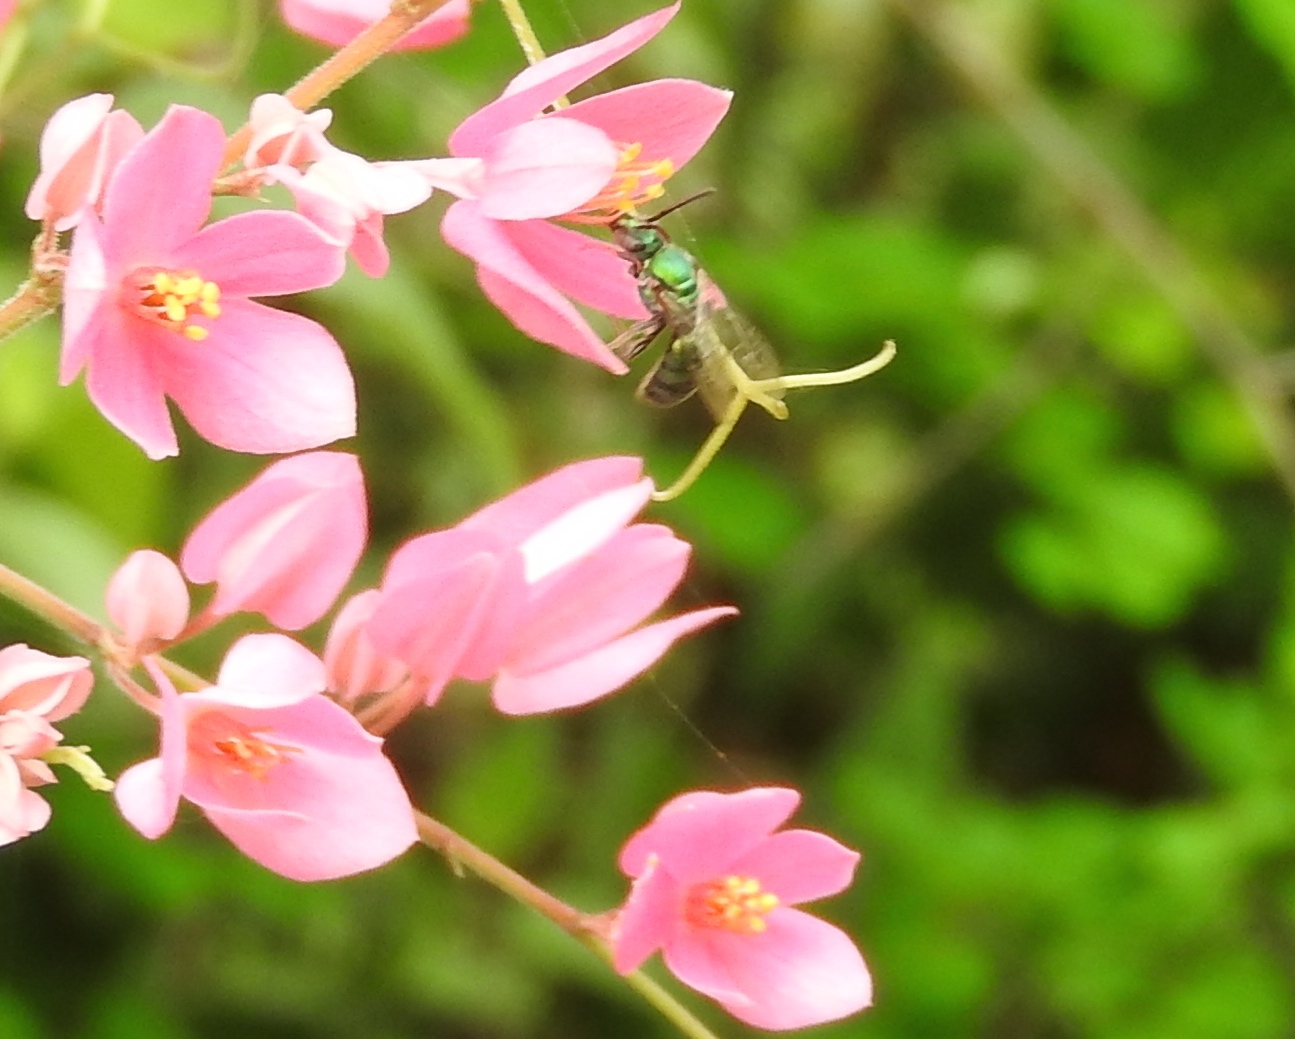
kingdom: Animalia
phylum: Arthropoda
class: Insecta
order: Hymenoptera
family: Halictidae
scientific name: Halictidae
